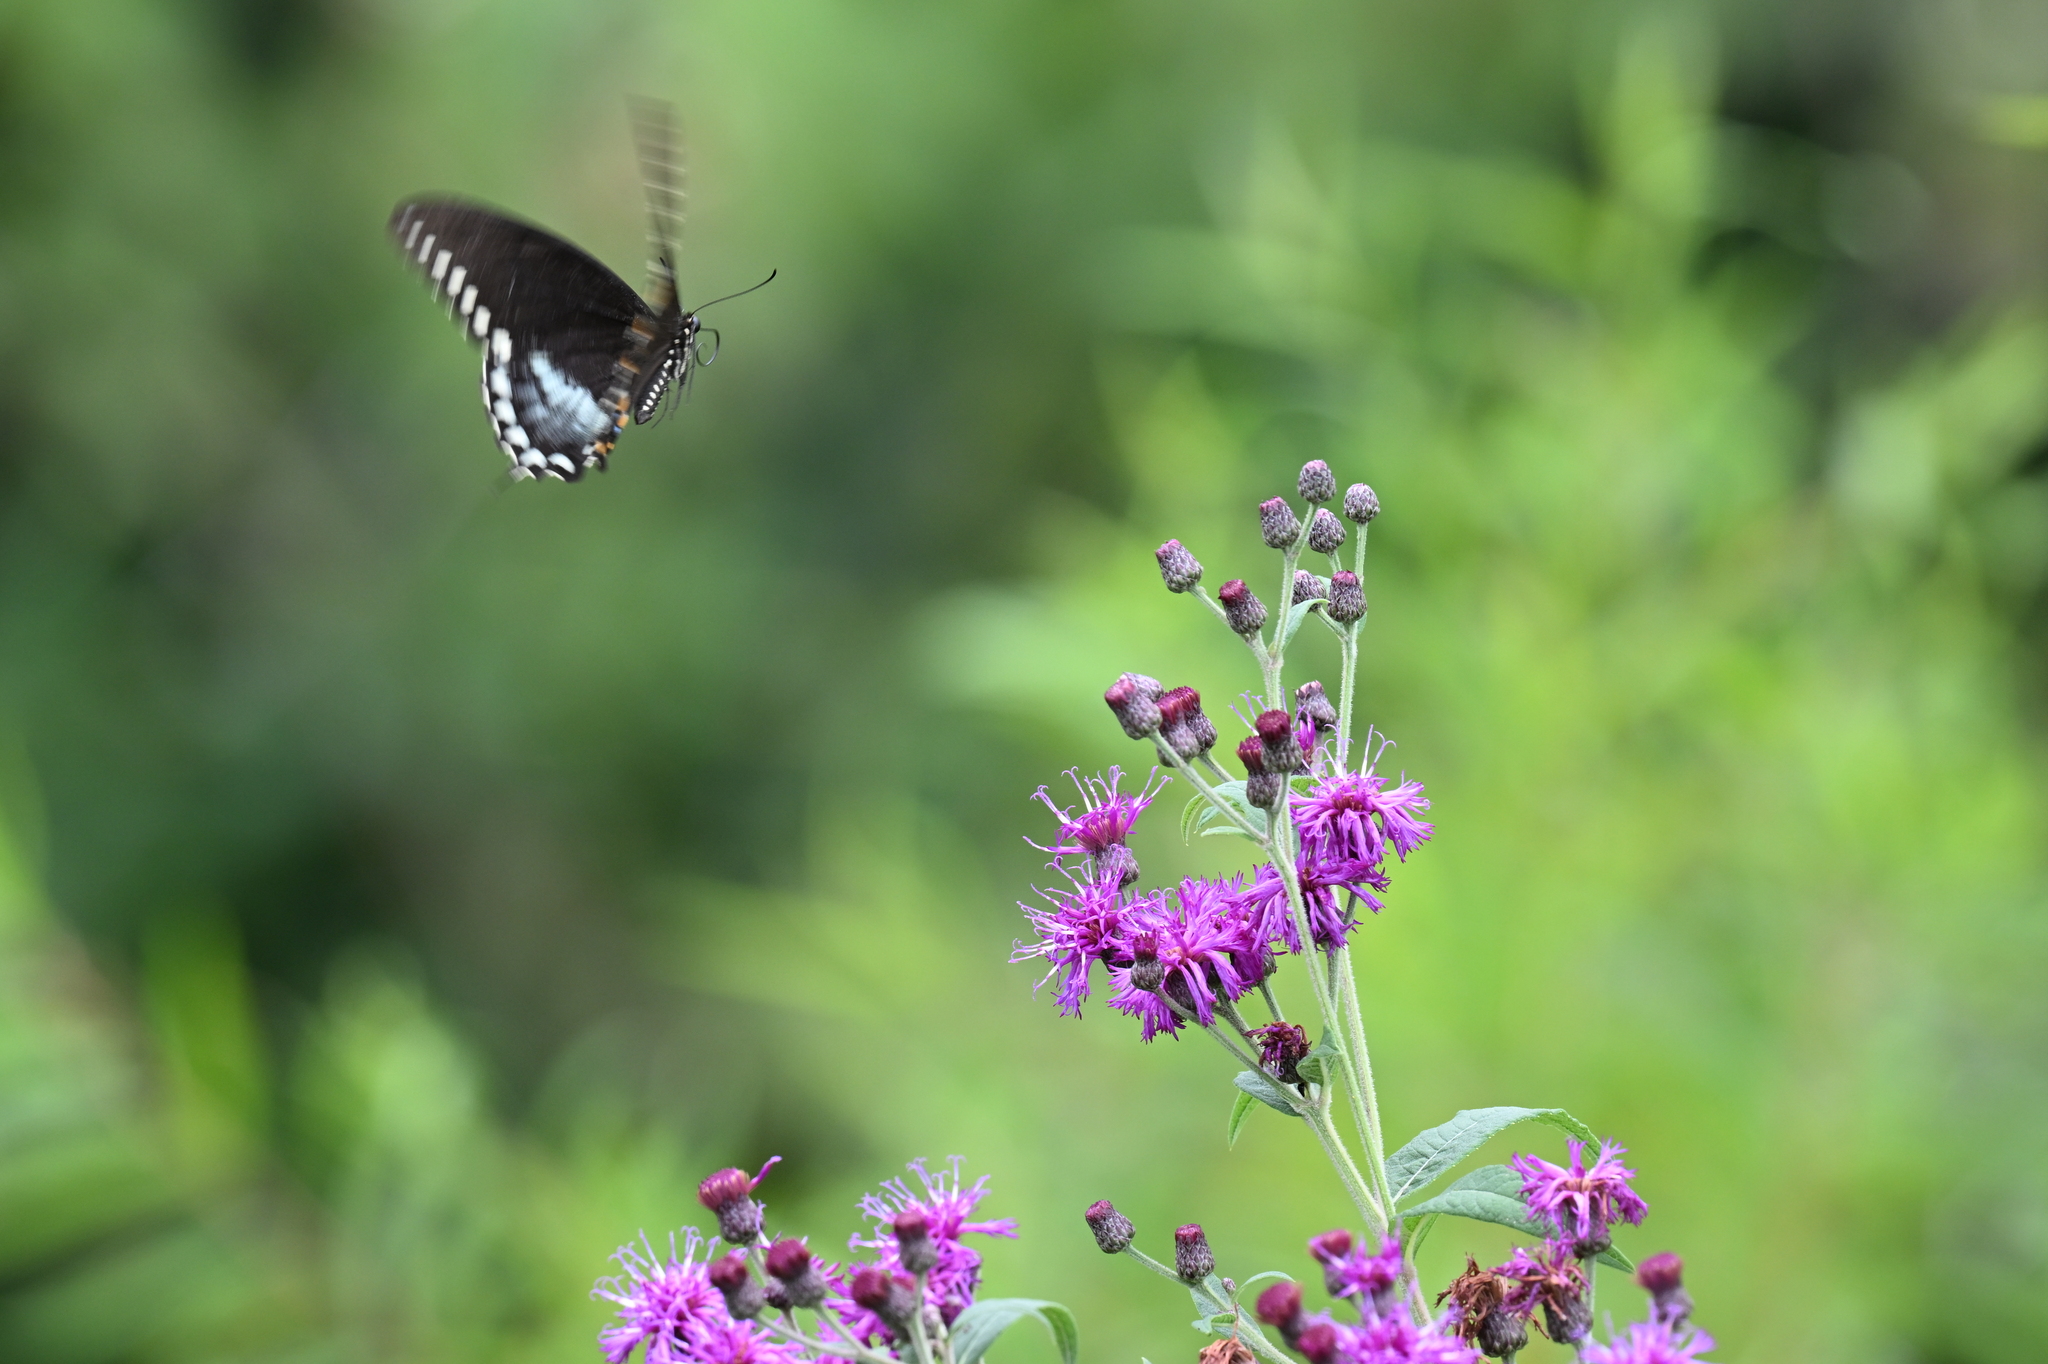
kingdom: Plantae
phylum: Tracheophyta
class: Magnoliopsida
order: Asterales
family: Asteraceae
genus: Vernonia
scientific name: Vernonia gigantea
